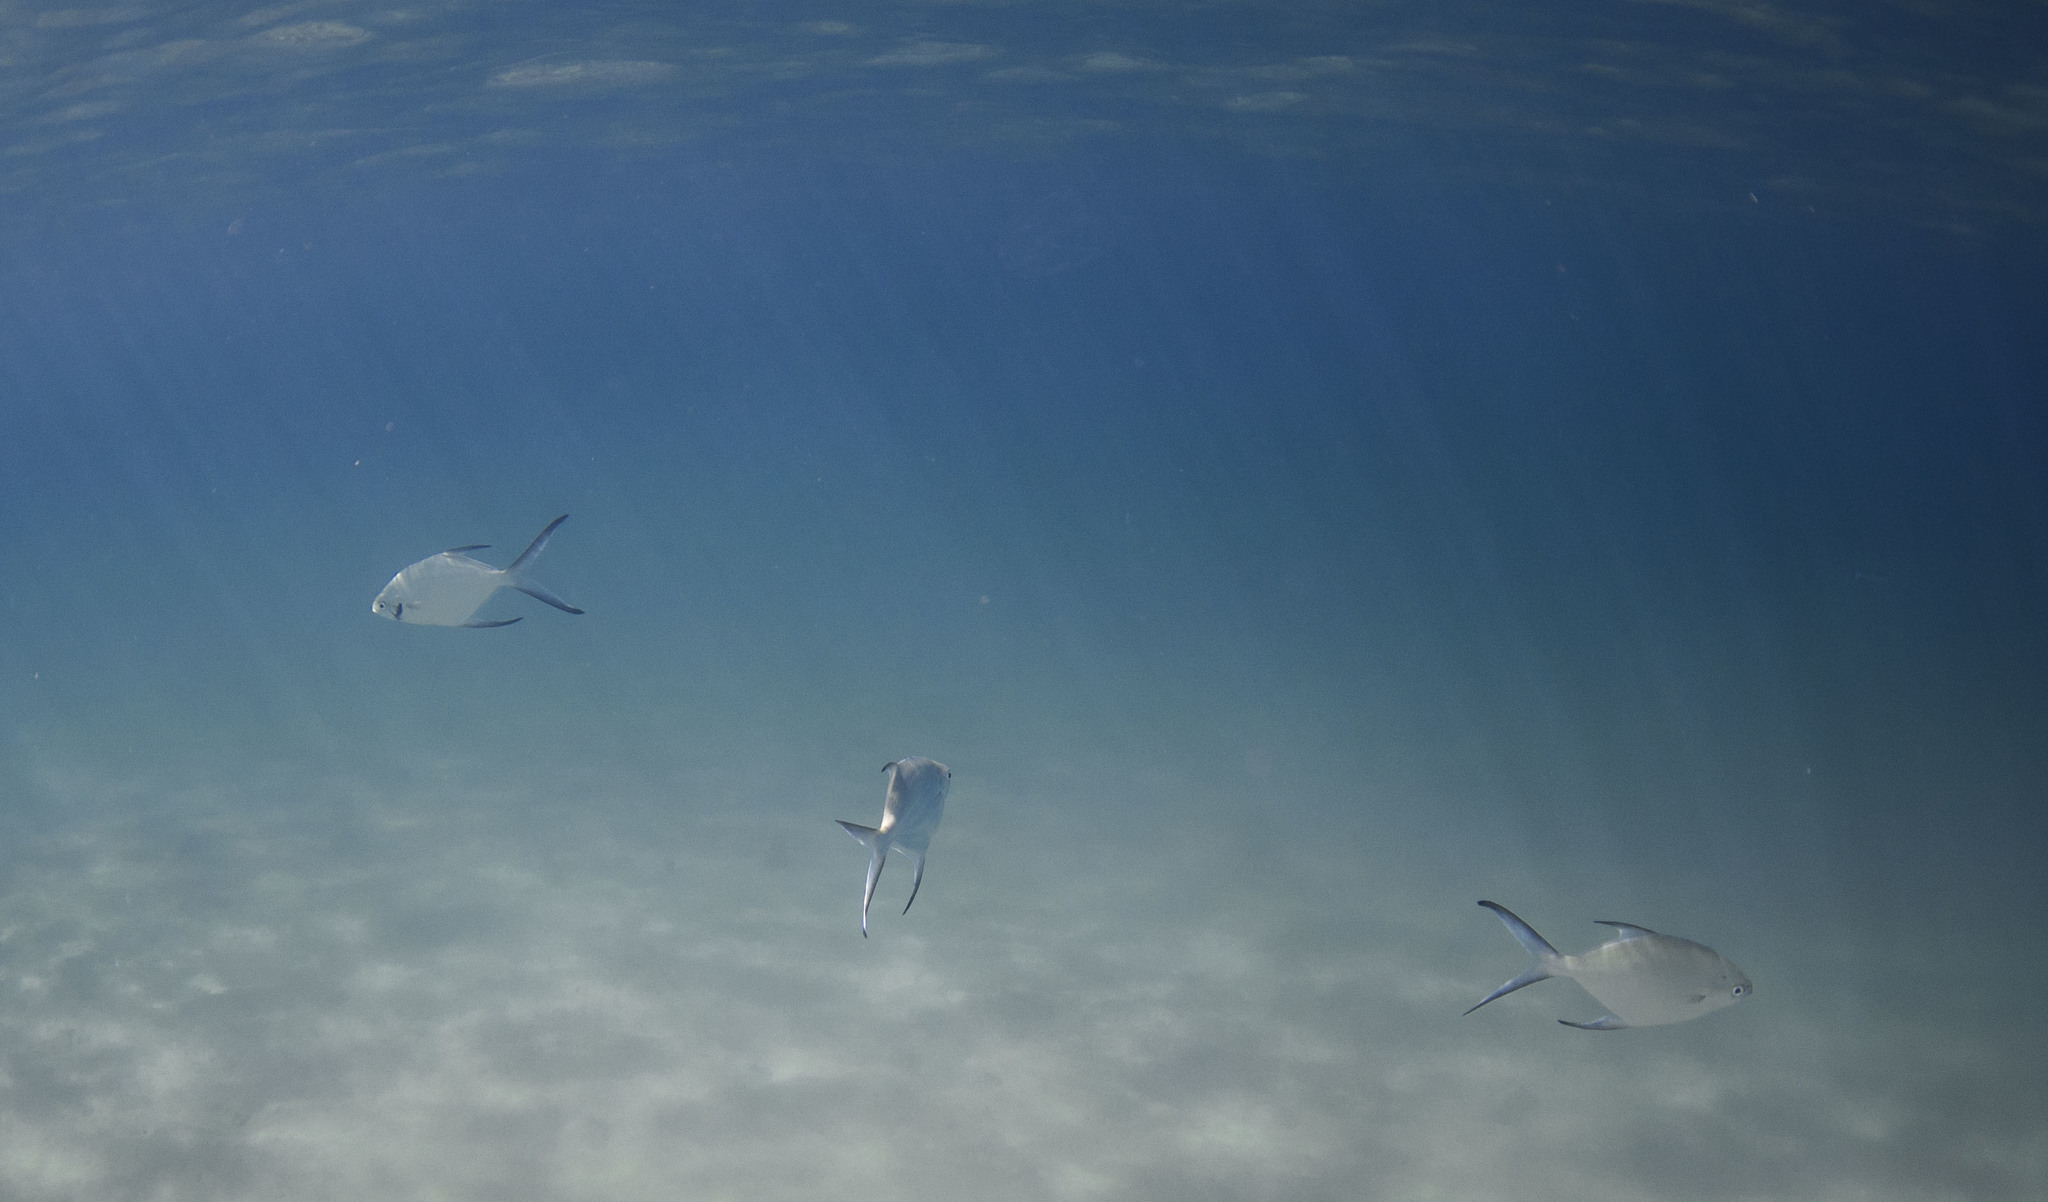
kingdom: Animalia
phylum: Chordata
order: Perciformes
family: Carangidae
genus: Trachinotus
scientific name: Trachinotus baillonii
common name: Smallspotted dart
